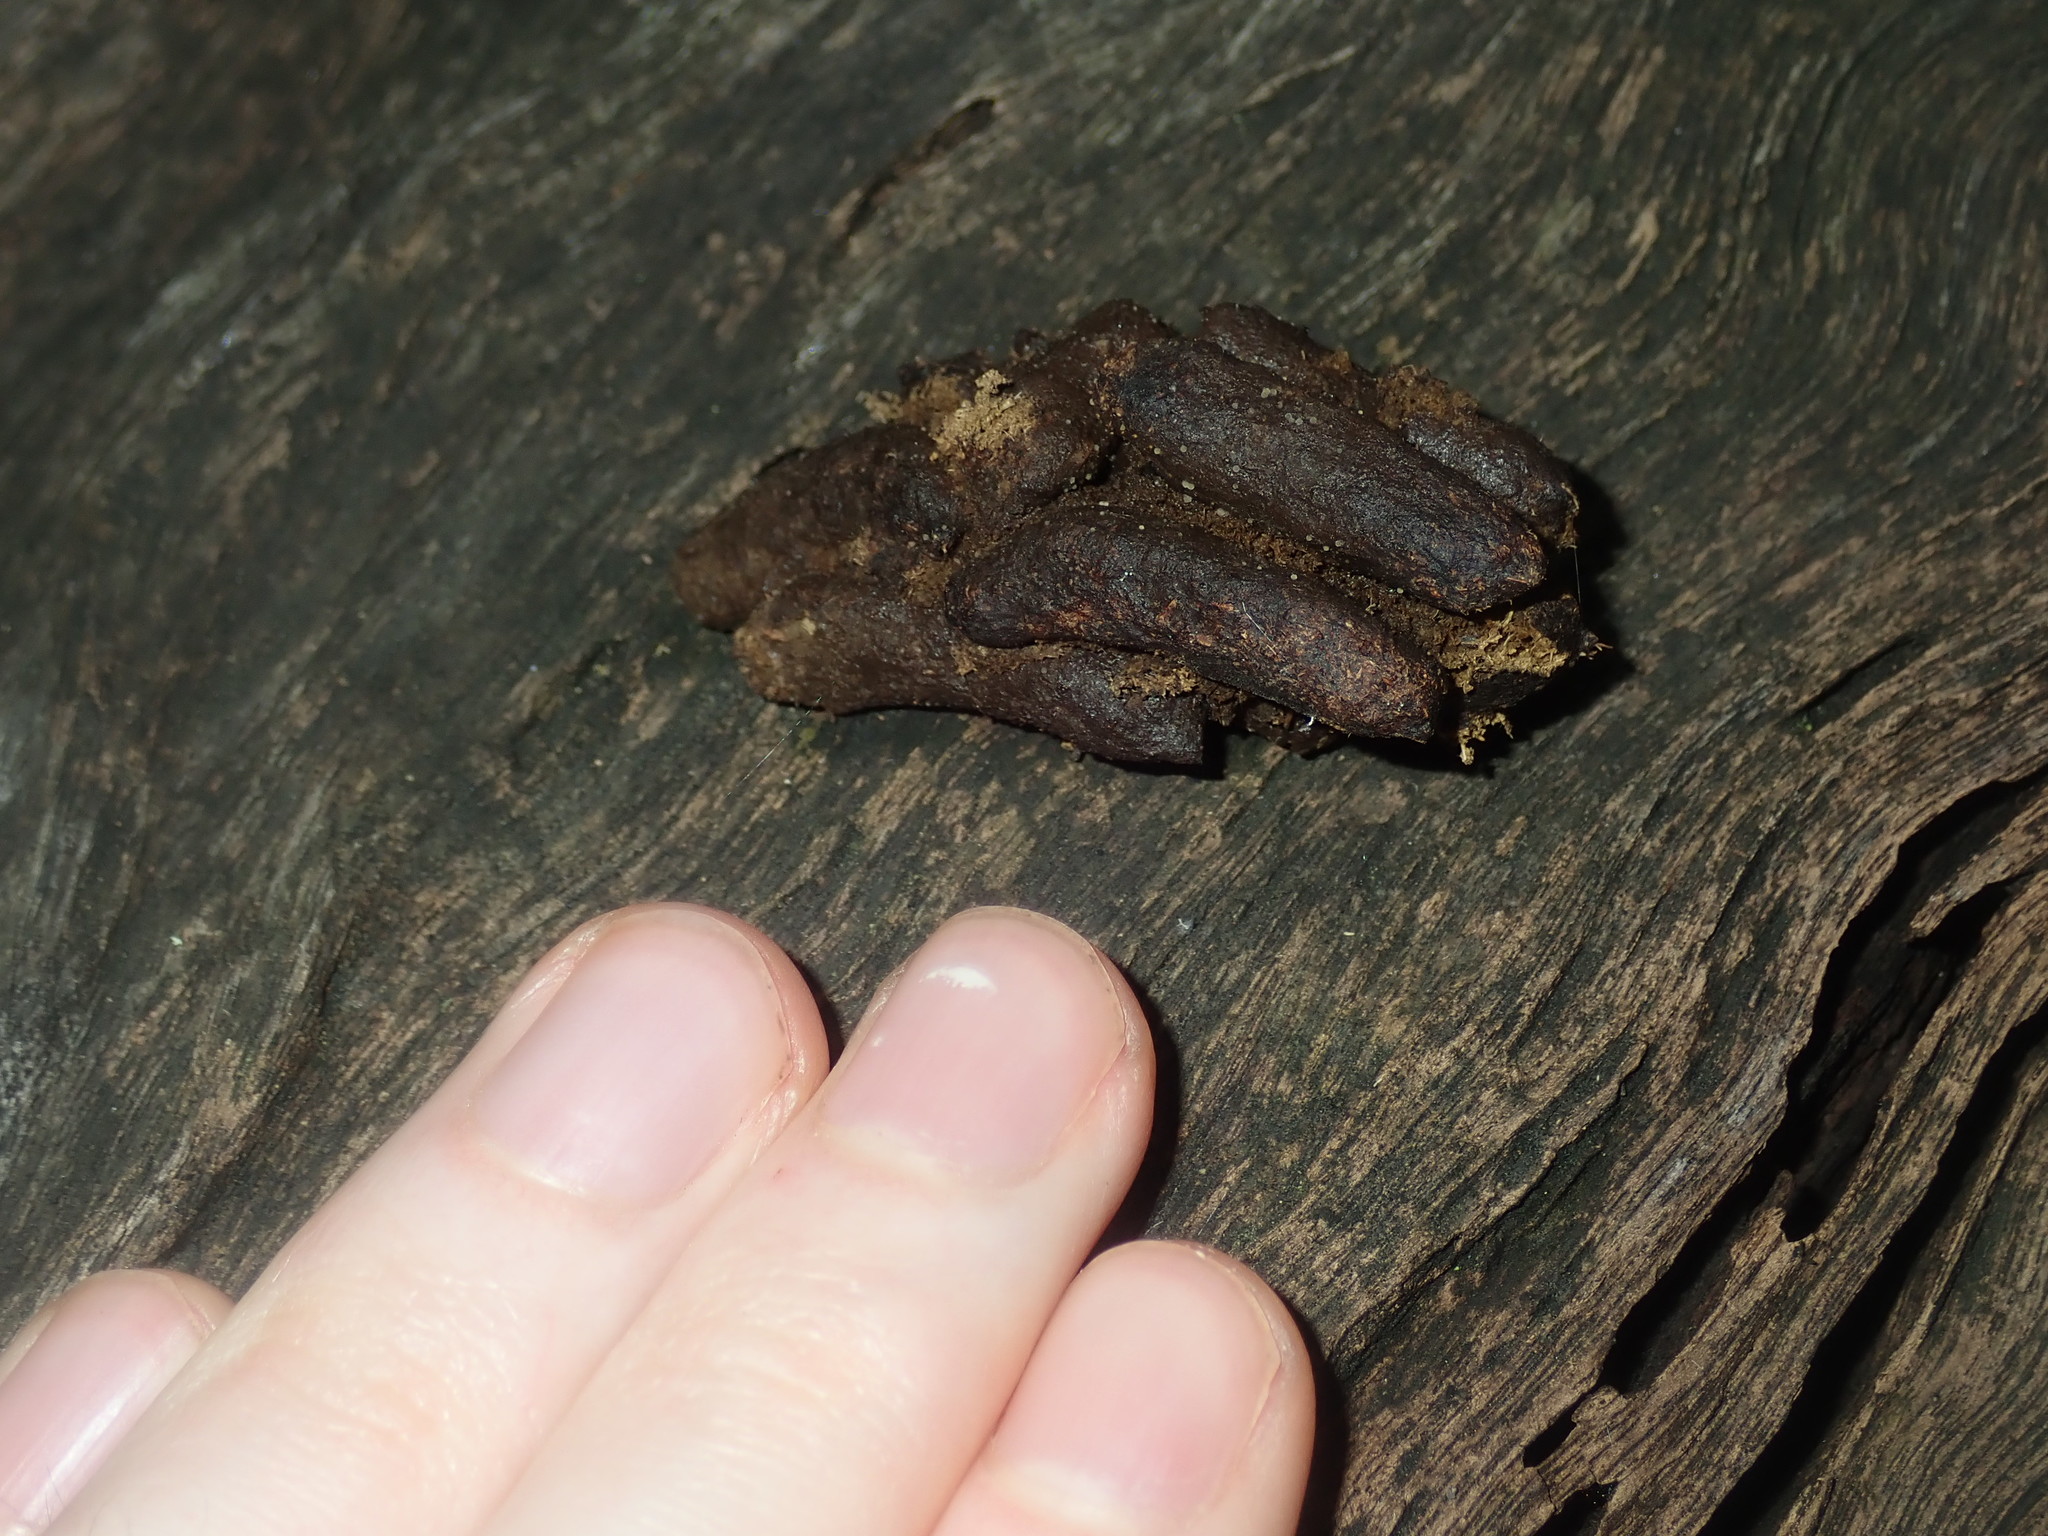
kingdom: Animalia
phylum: Chordata
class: Mammalia
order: Diprotodontia
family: Phalangeridae
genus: Trichosurus
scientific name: Trichosurus vulpecula
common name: Common brushtail
